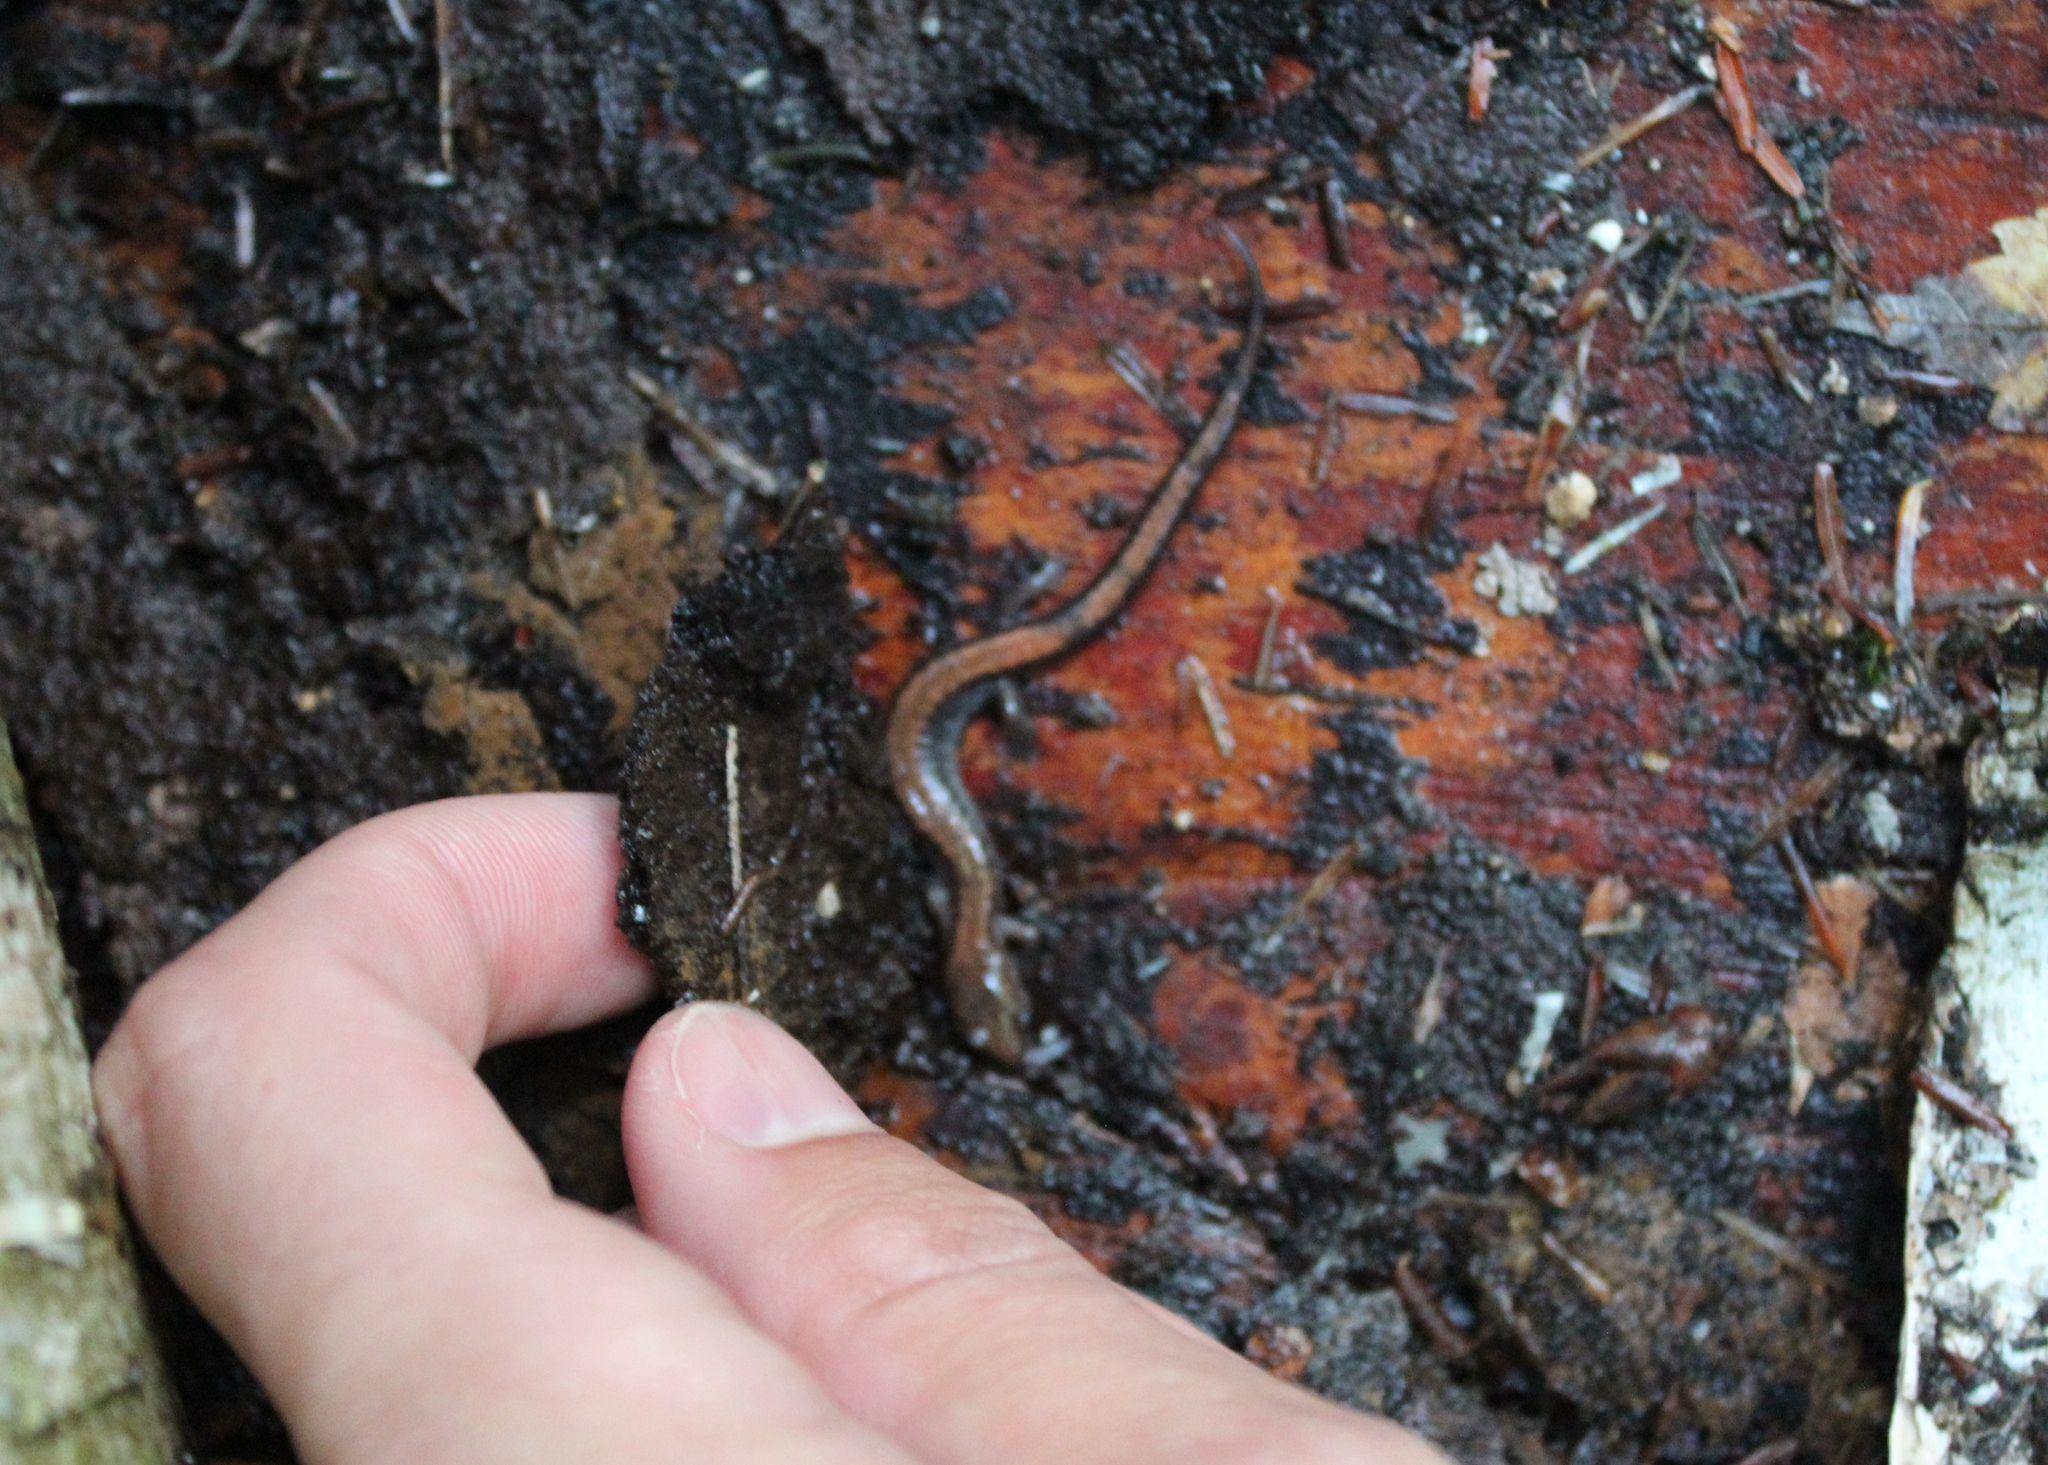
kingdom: Animalia
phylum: Chordata
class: Amphibia
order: Caudata
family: Plethodontidae
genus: Plethodon
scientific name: Plethodon cinereus
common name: Redback salamander
